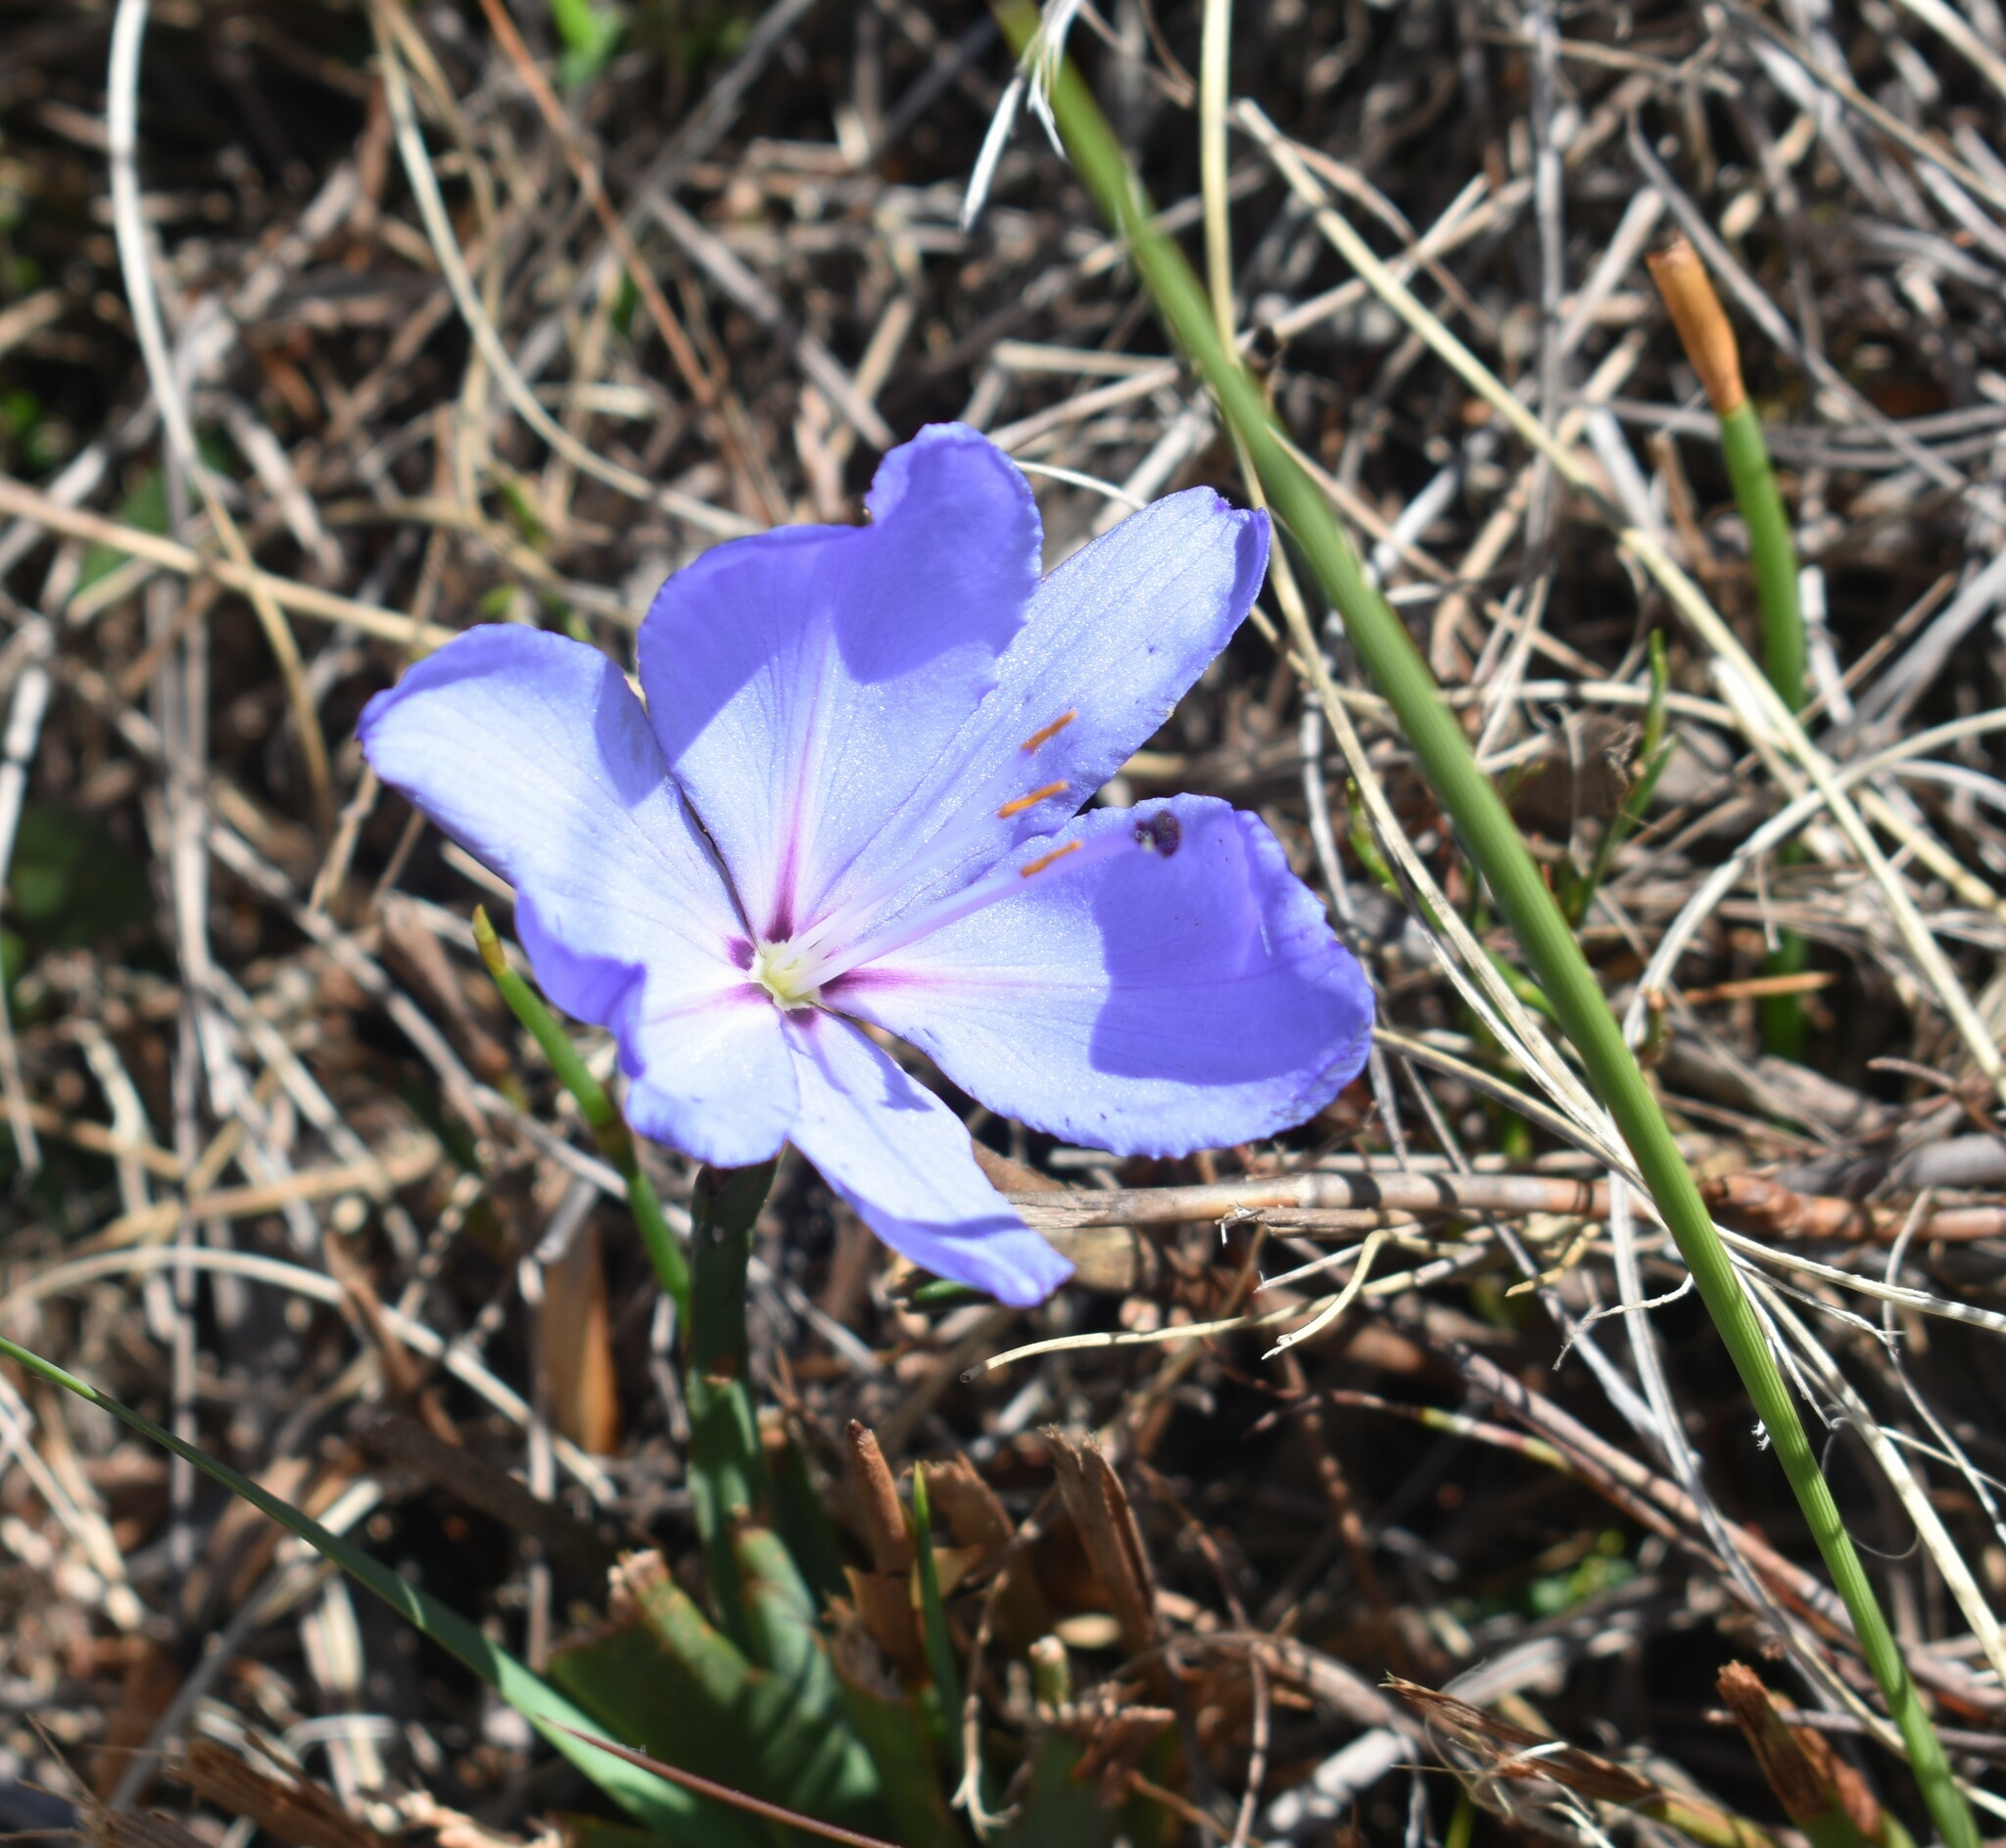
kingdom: Plantae
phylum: Tracheophyta
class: Liliopsida
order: Asparagales
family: Iridaceae
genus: Aristea
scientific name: Aristea spiralis
